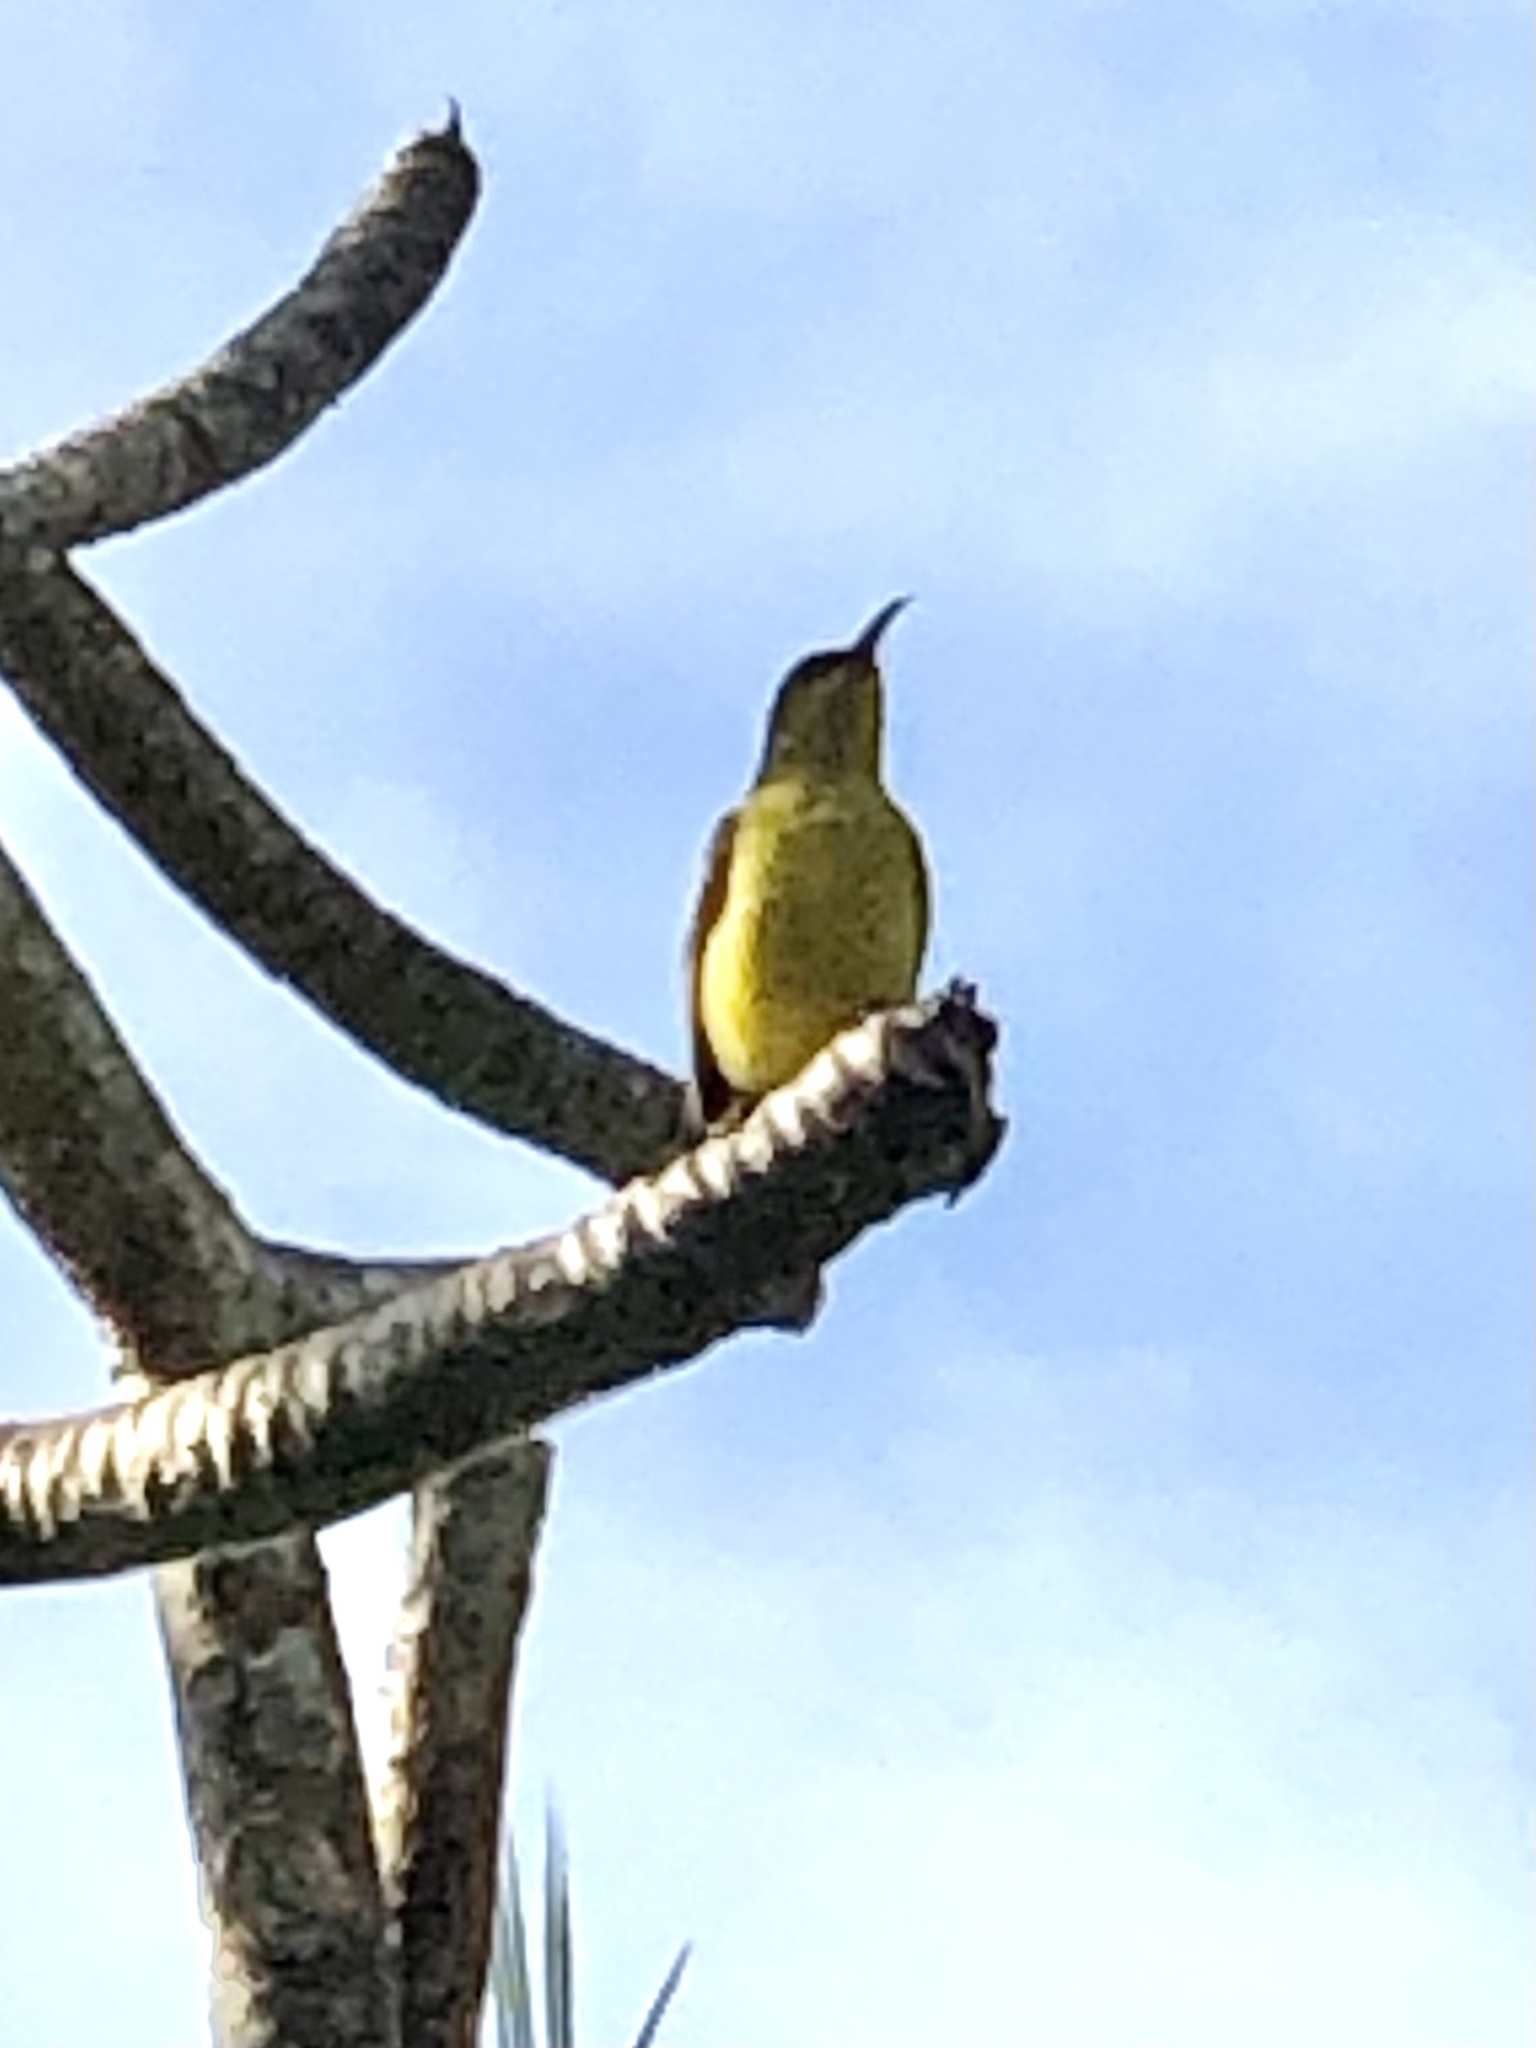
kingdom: Animalia
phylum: Chordata
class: Aves
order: Passeriformes
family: Nectariniidae
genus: Cinnyris
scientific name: Cinnyris
